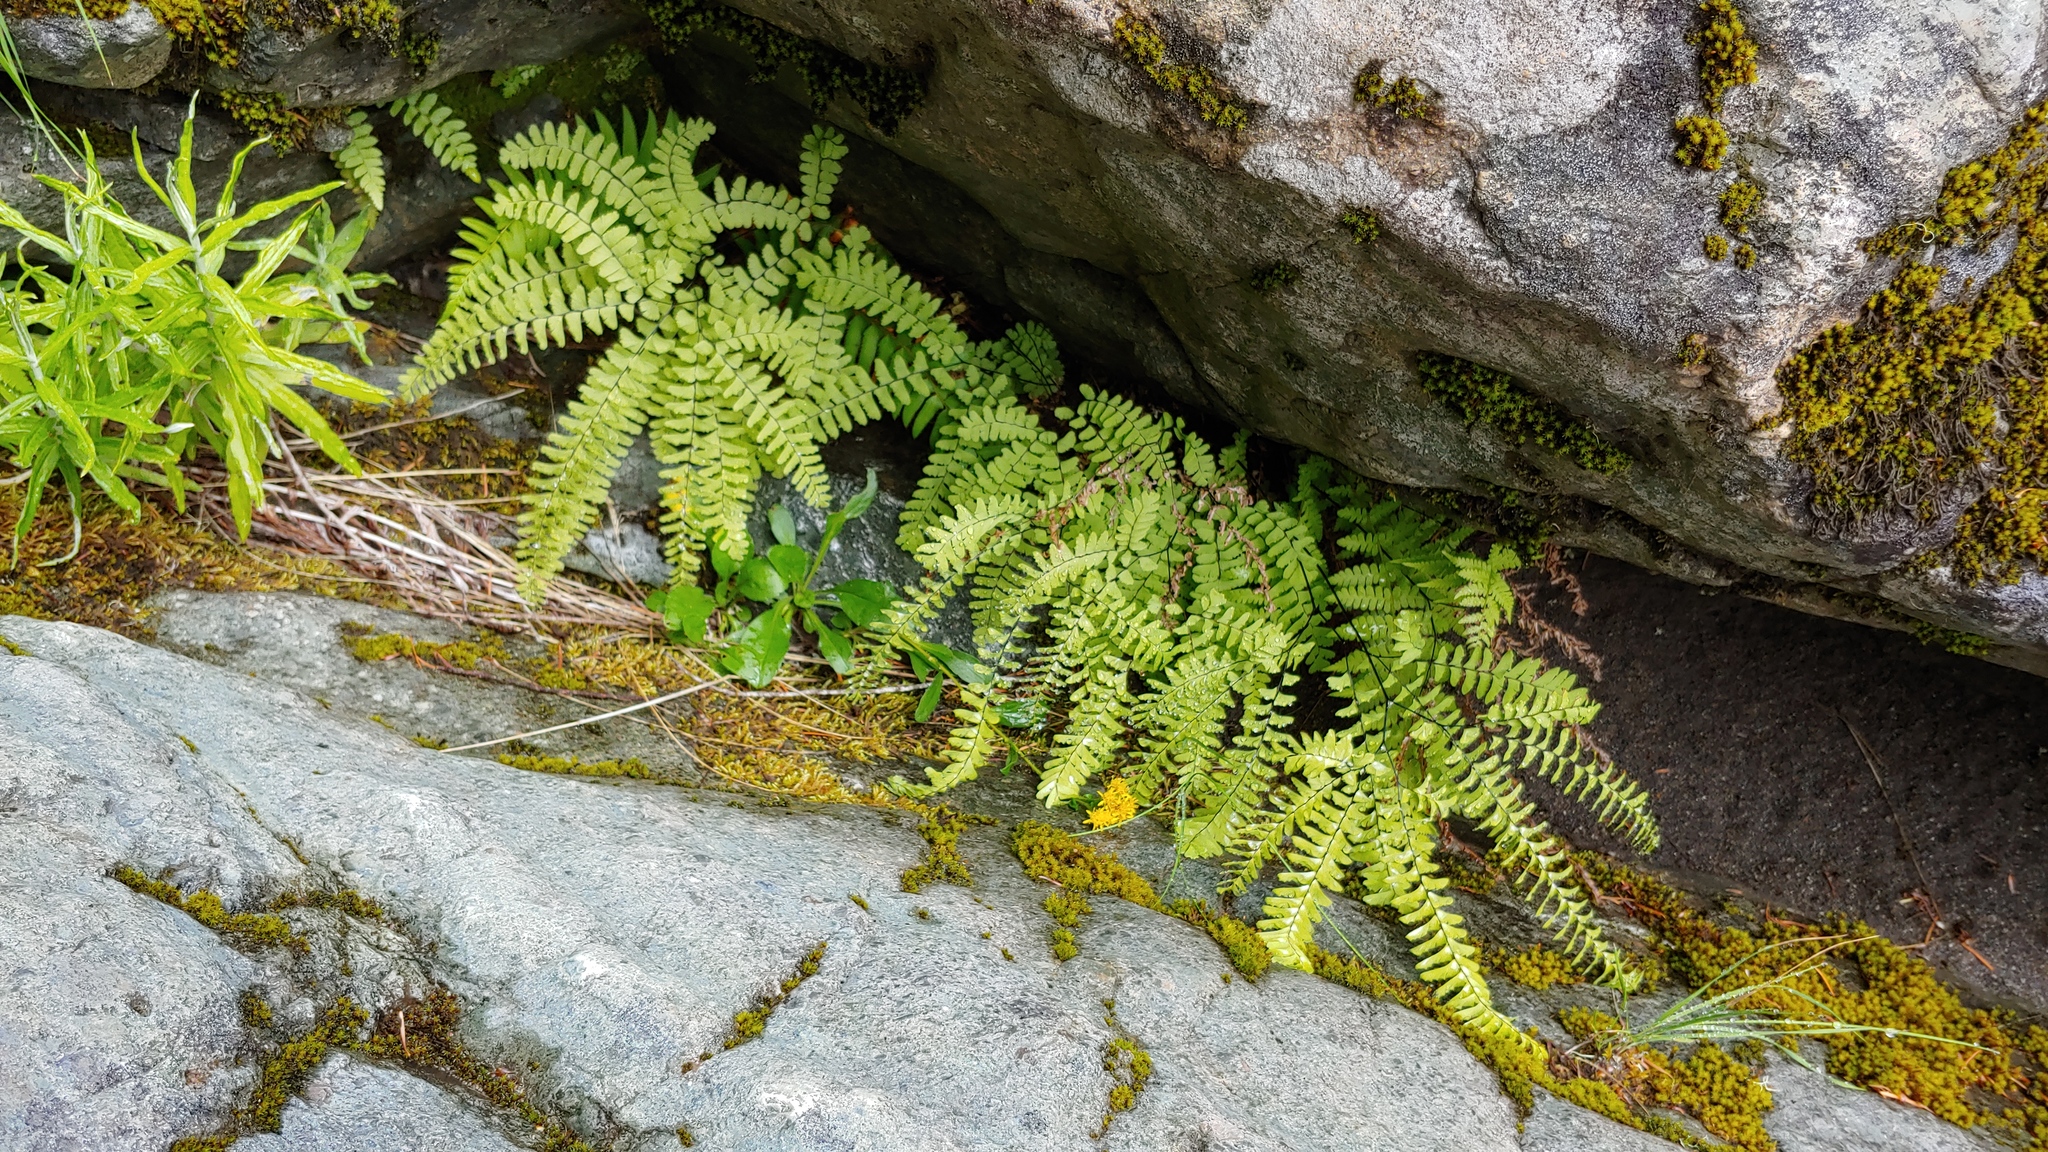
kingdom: Plantae
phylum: Tracheophyta
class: Polypodiopsida
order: Polypodiales
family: Pteridaceae
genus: Adiantum
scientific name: Adiantum aleuticum
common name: Aleutian maidenhair fern
